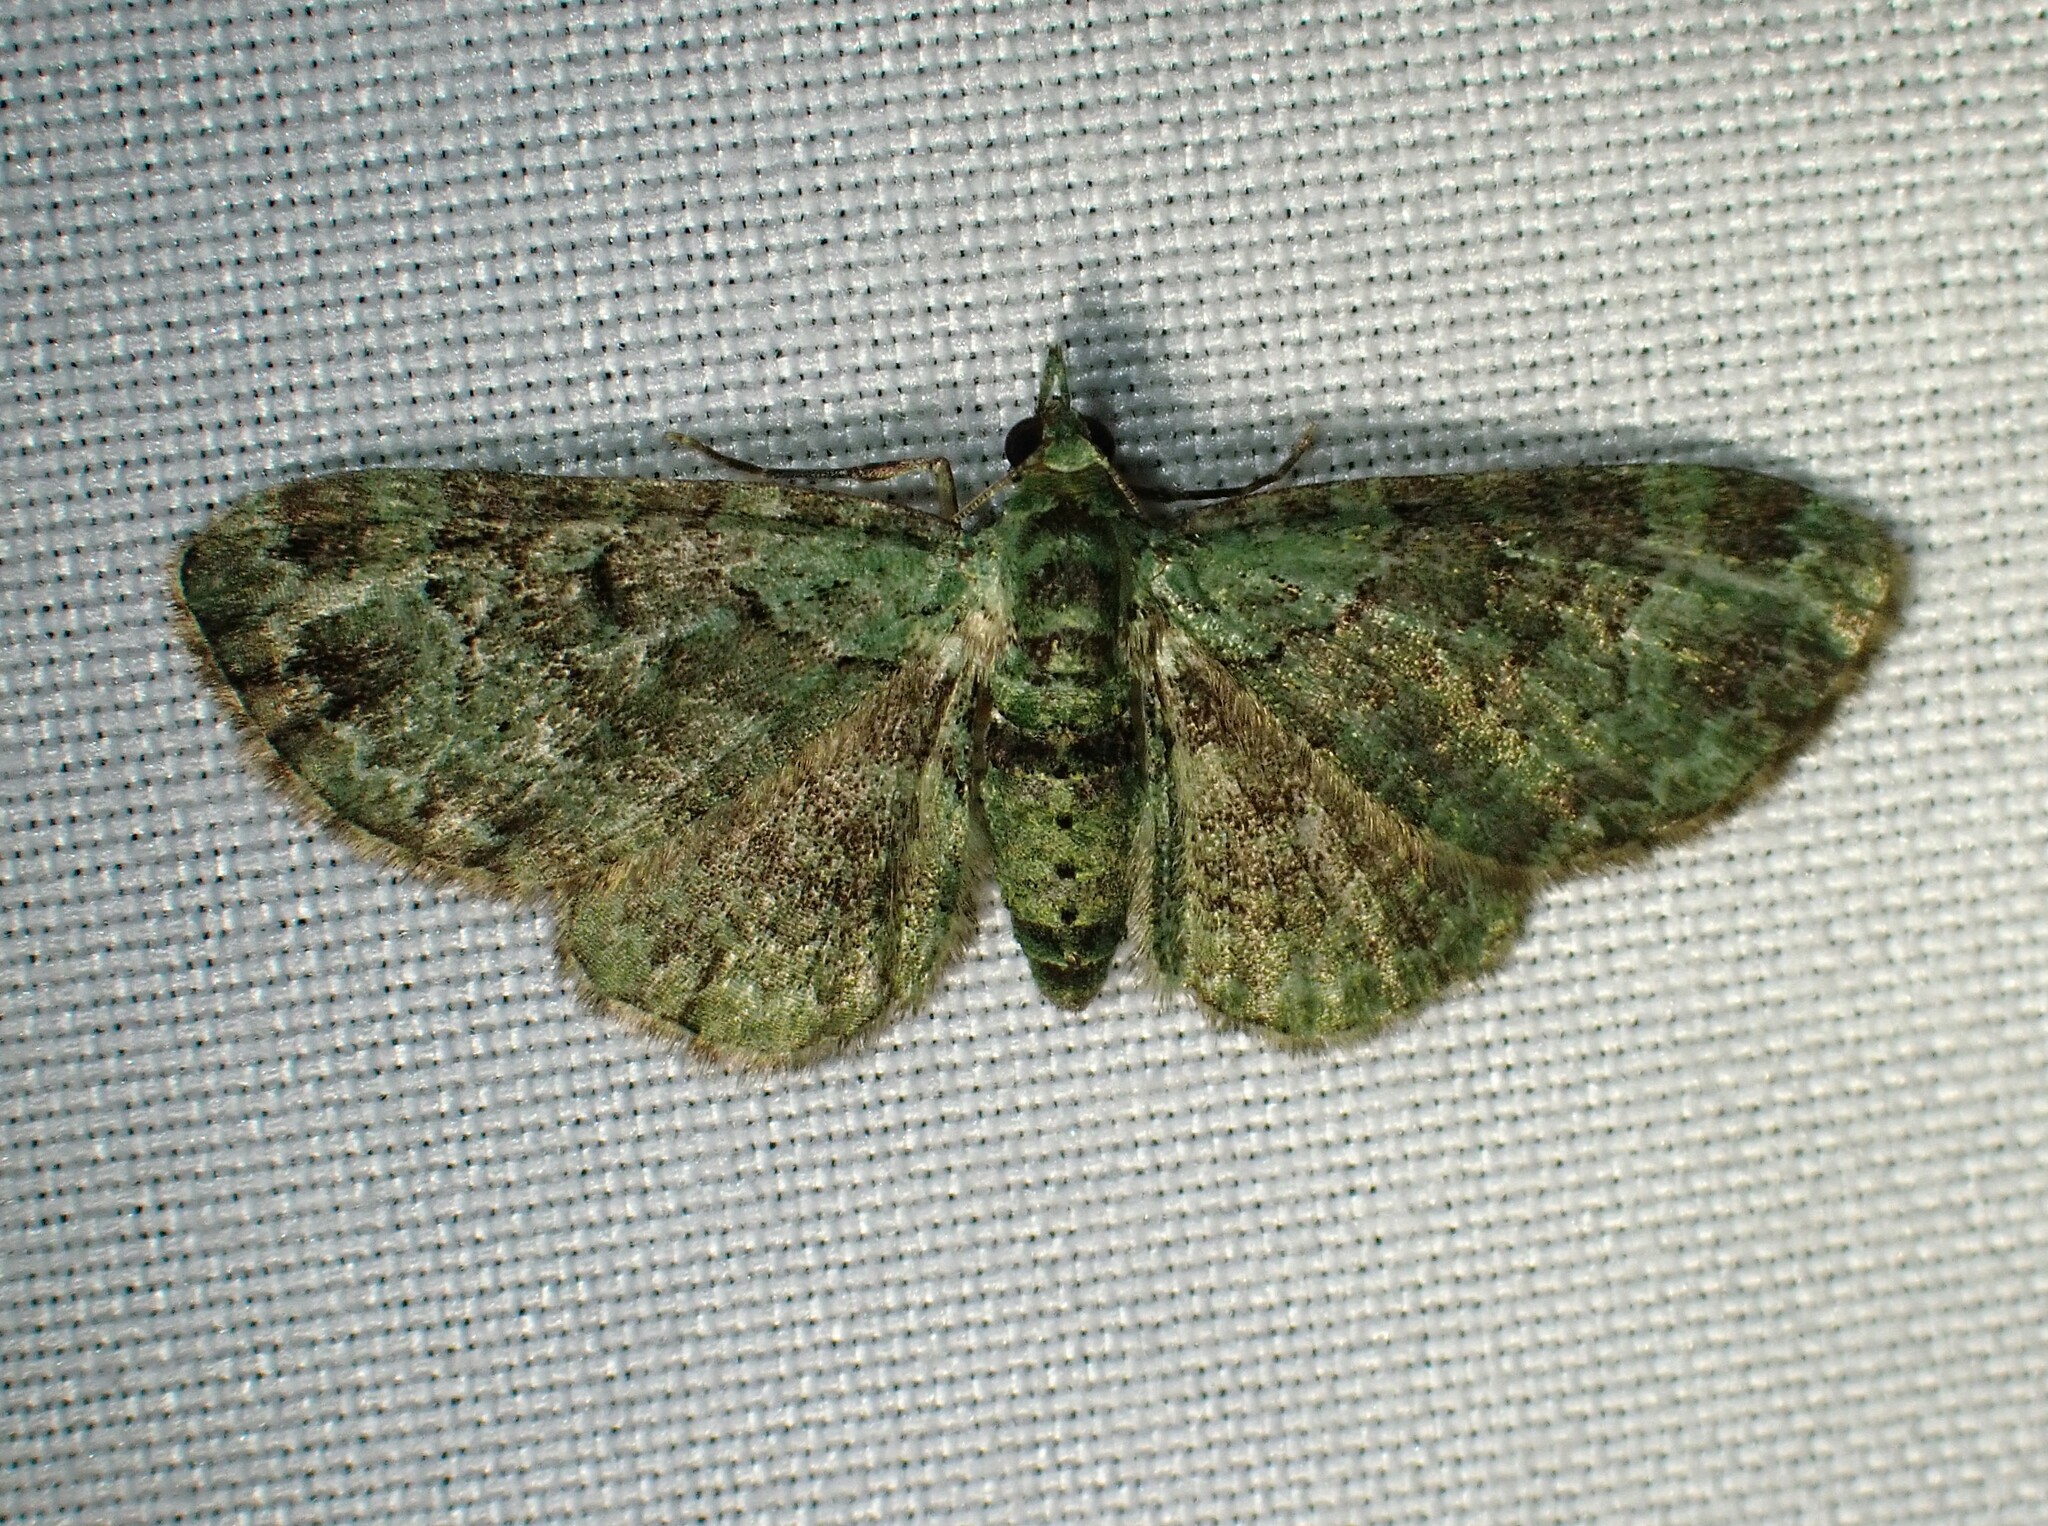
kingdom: Animalia
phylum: Arthropoda
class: Insecta
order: Lepidoptera
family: Geometridae
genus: Pasiphila
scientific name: Pasiphila rectangulata
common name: Green pug
